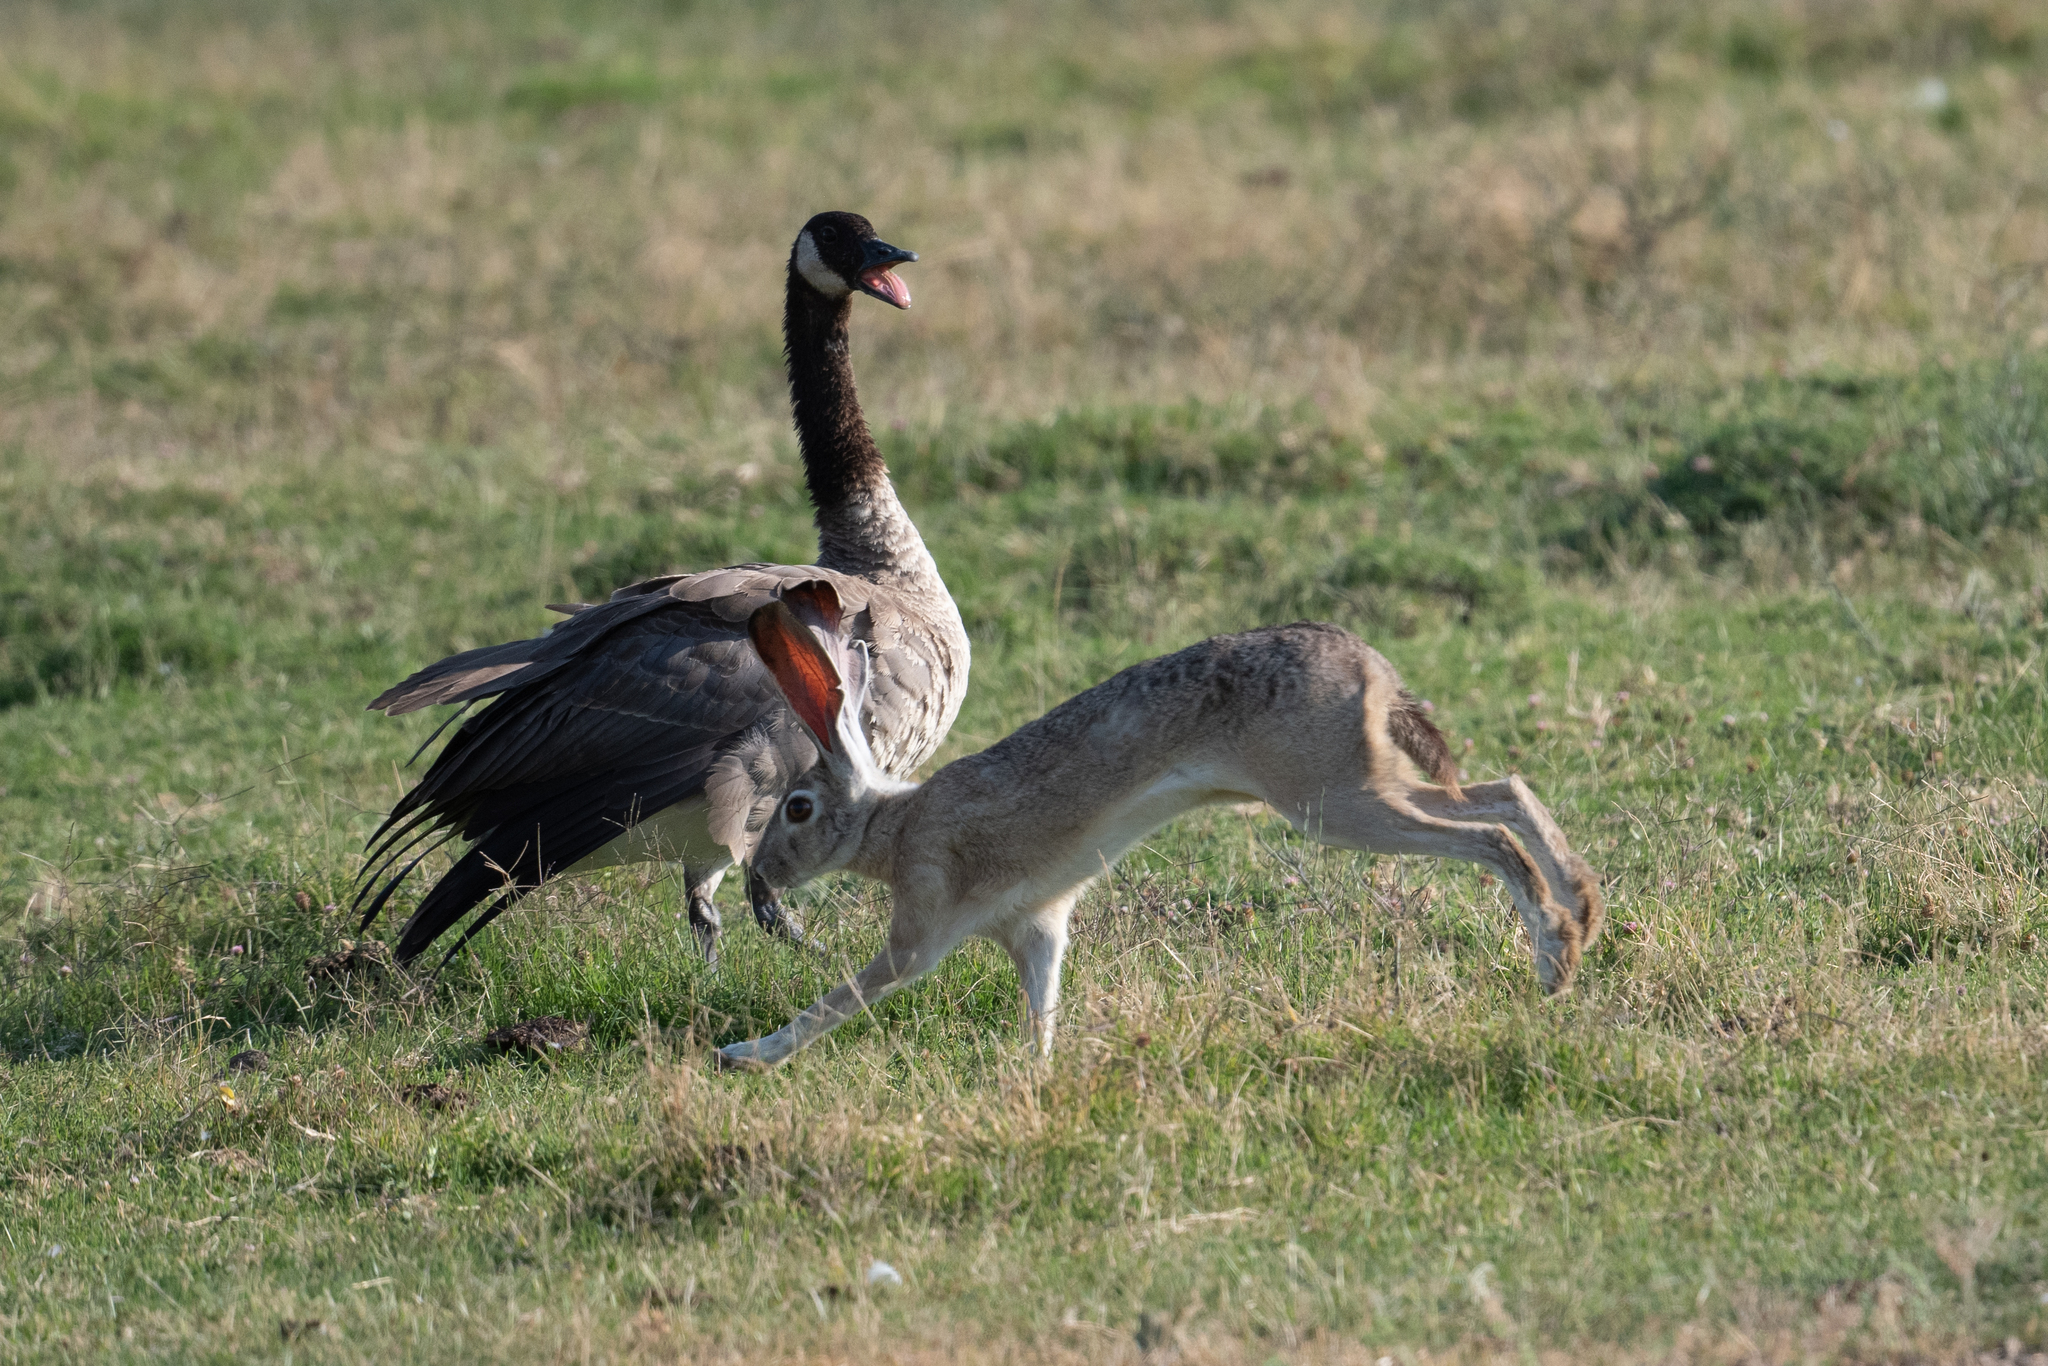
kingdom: Animalia
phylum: Chordata
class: Aves
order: Anseriformes
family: Anatidae
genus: Branta
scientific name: Branta canadensis
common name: Canada goose
